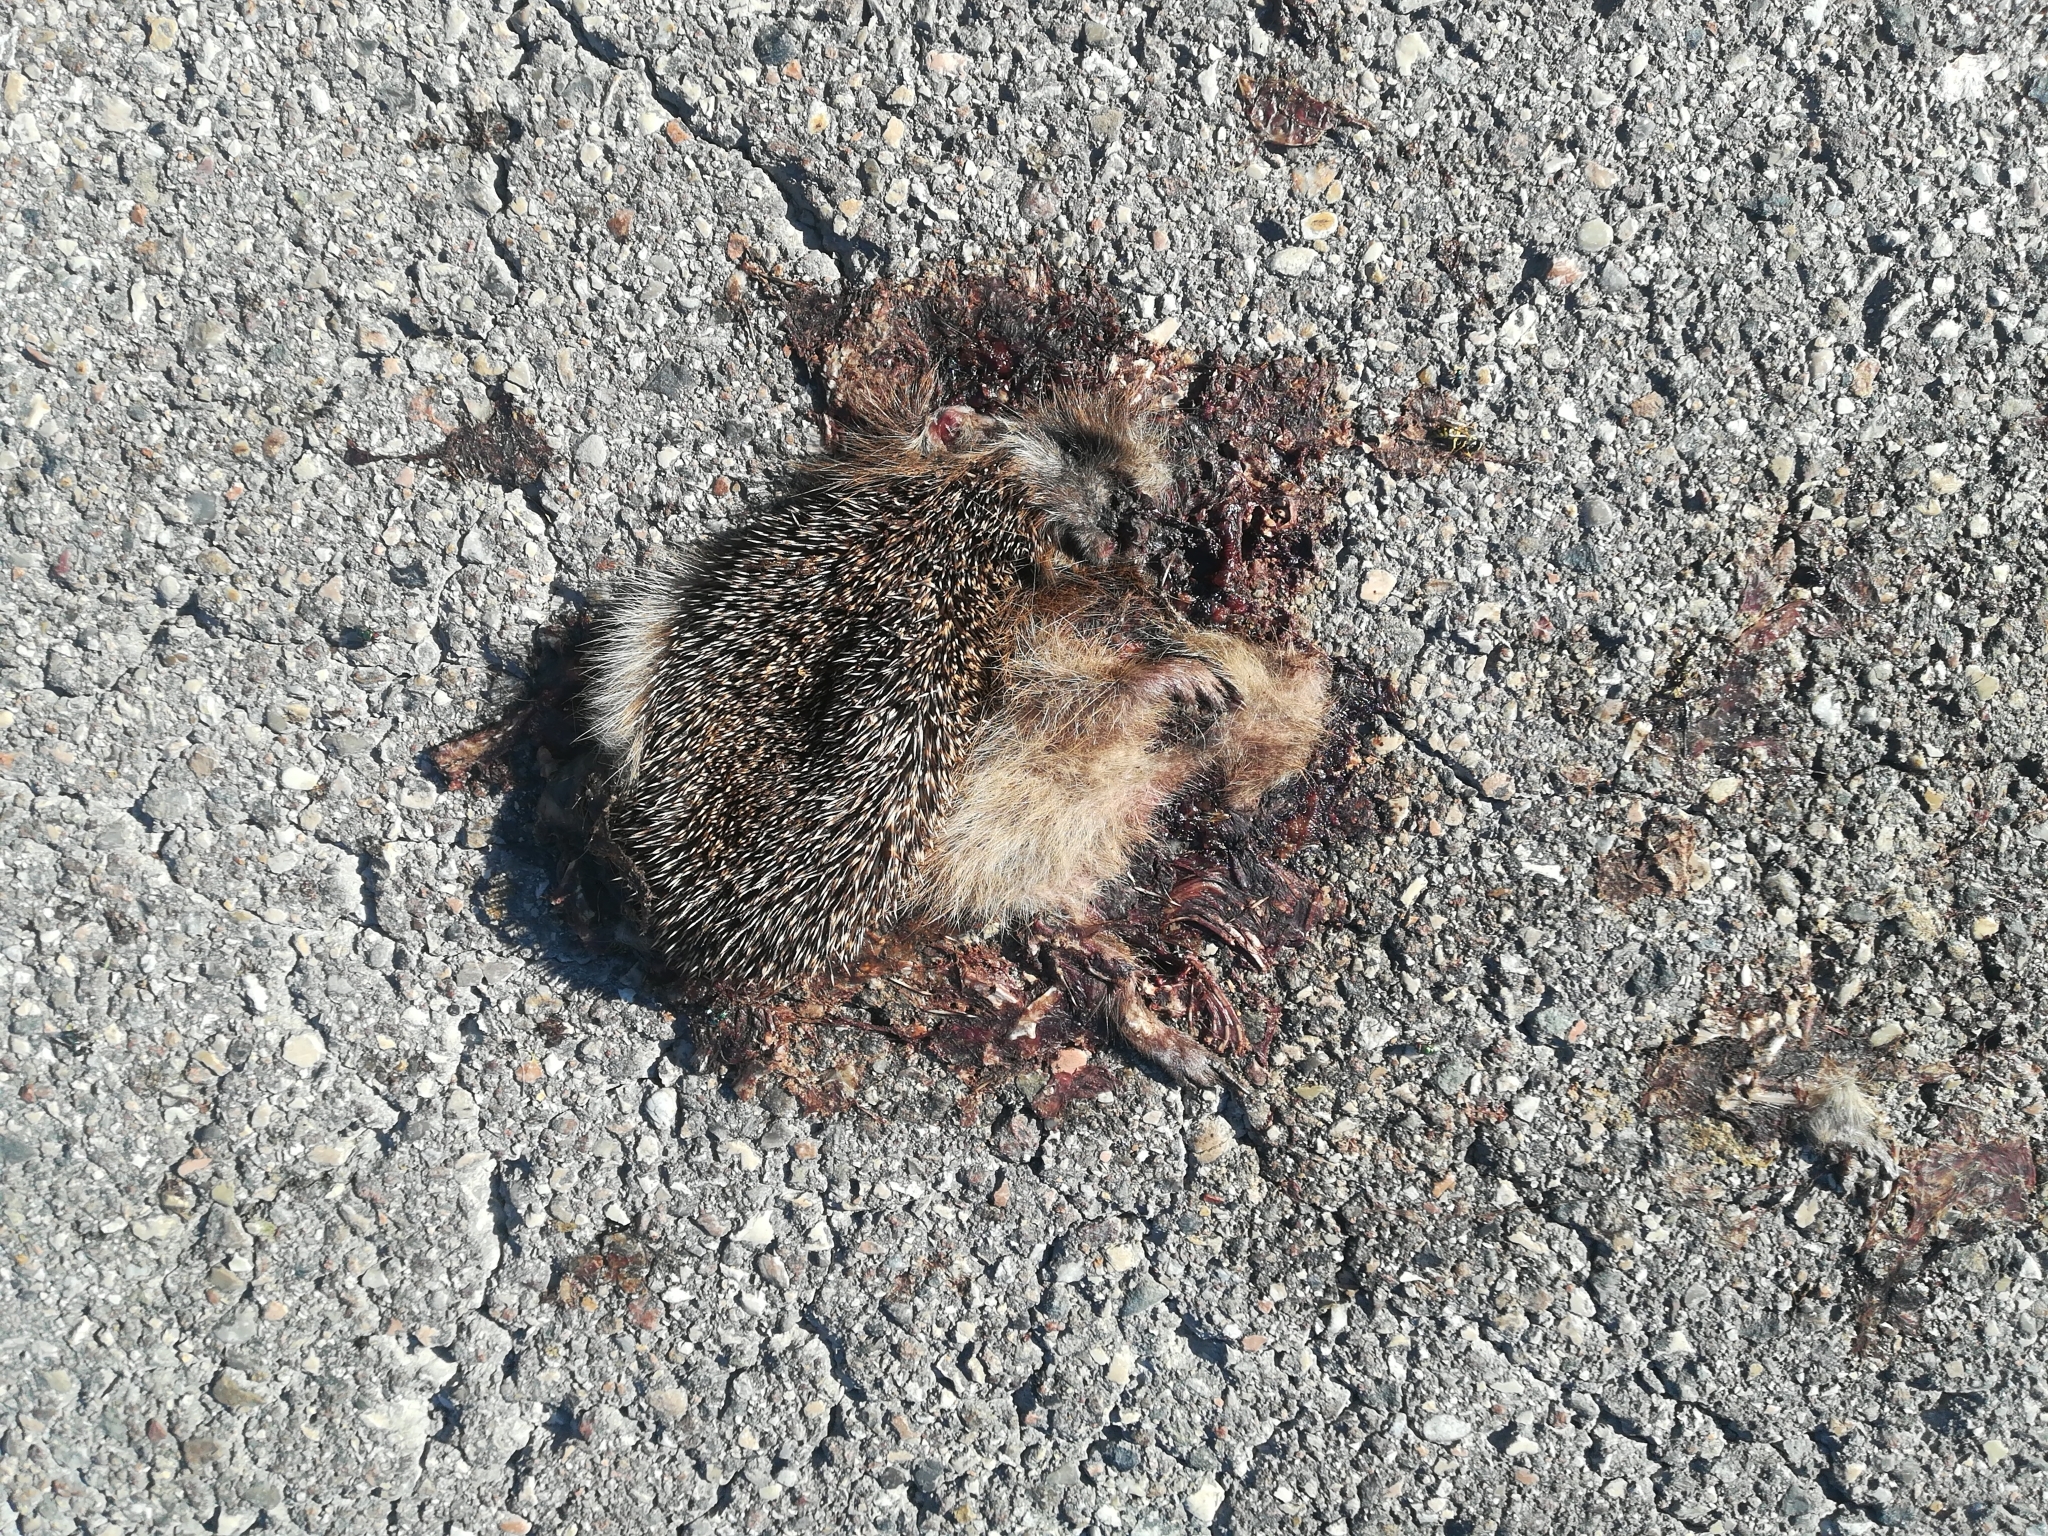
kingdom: Animalia
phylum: Chordata
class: Mammalia
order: Erinaceomorpha
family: Erinaceidae
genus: Erinaceus
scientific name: Erinaceus europaeus
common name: West european hedgehog
